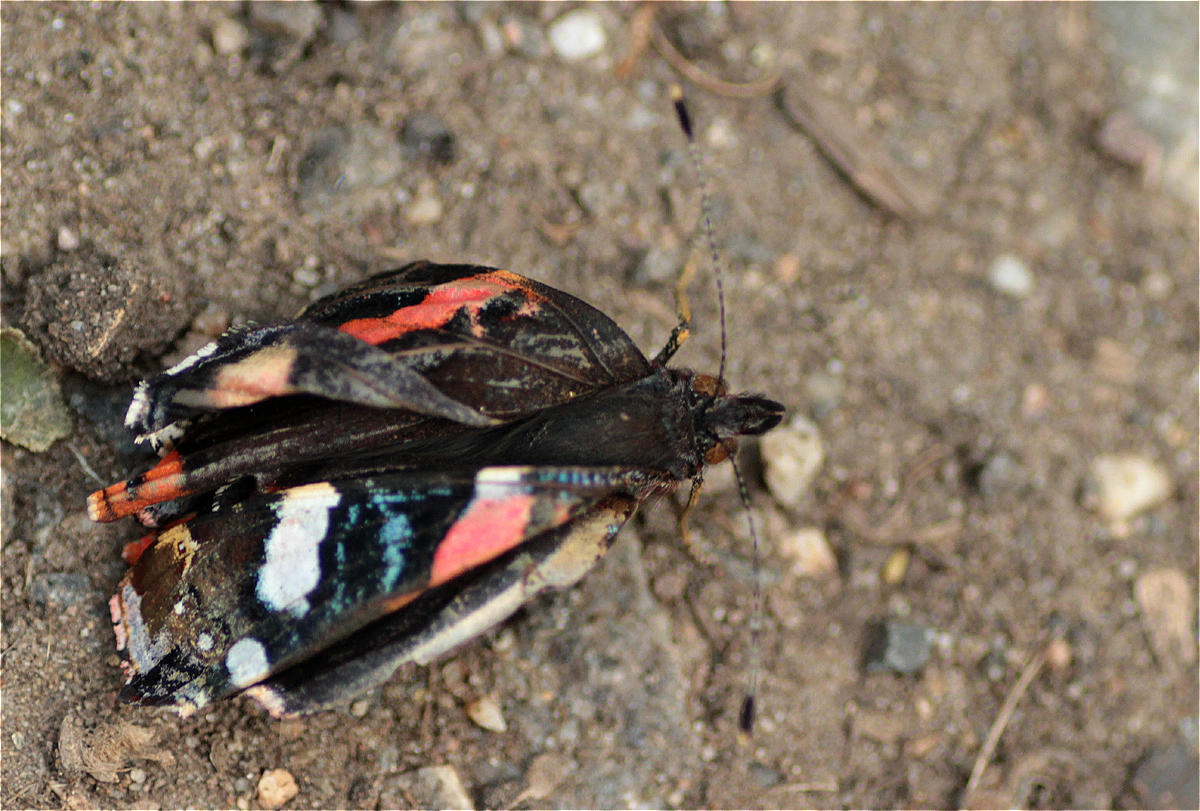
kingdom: Animalia
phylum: Arthropoda
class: Insecta
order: Lepidoptera
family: Nymphalidae
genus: Vanessa
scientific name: Vanessa atalanta
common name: Red admiral
